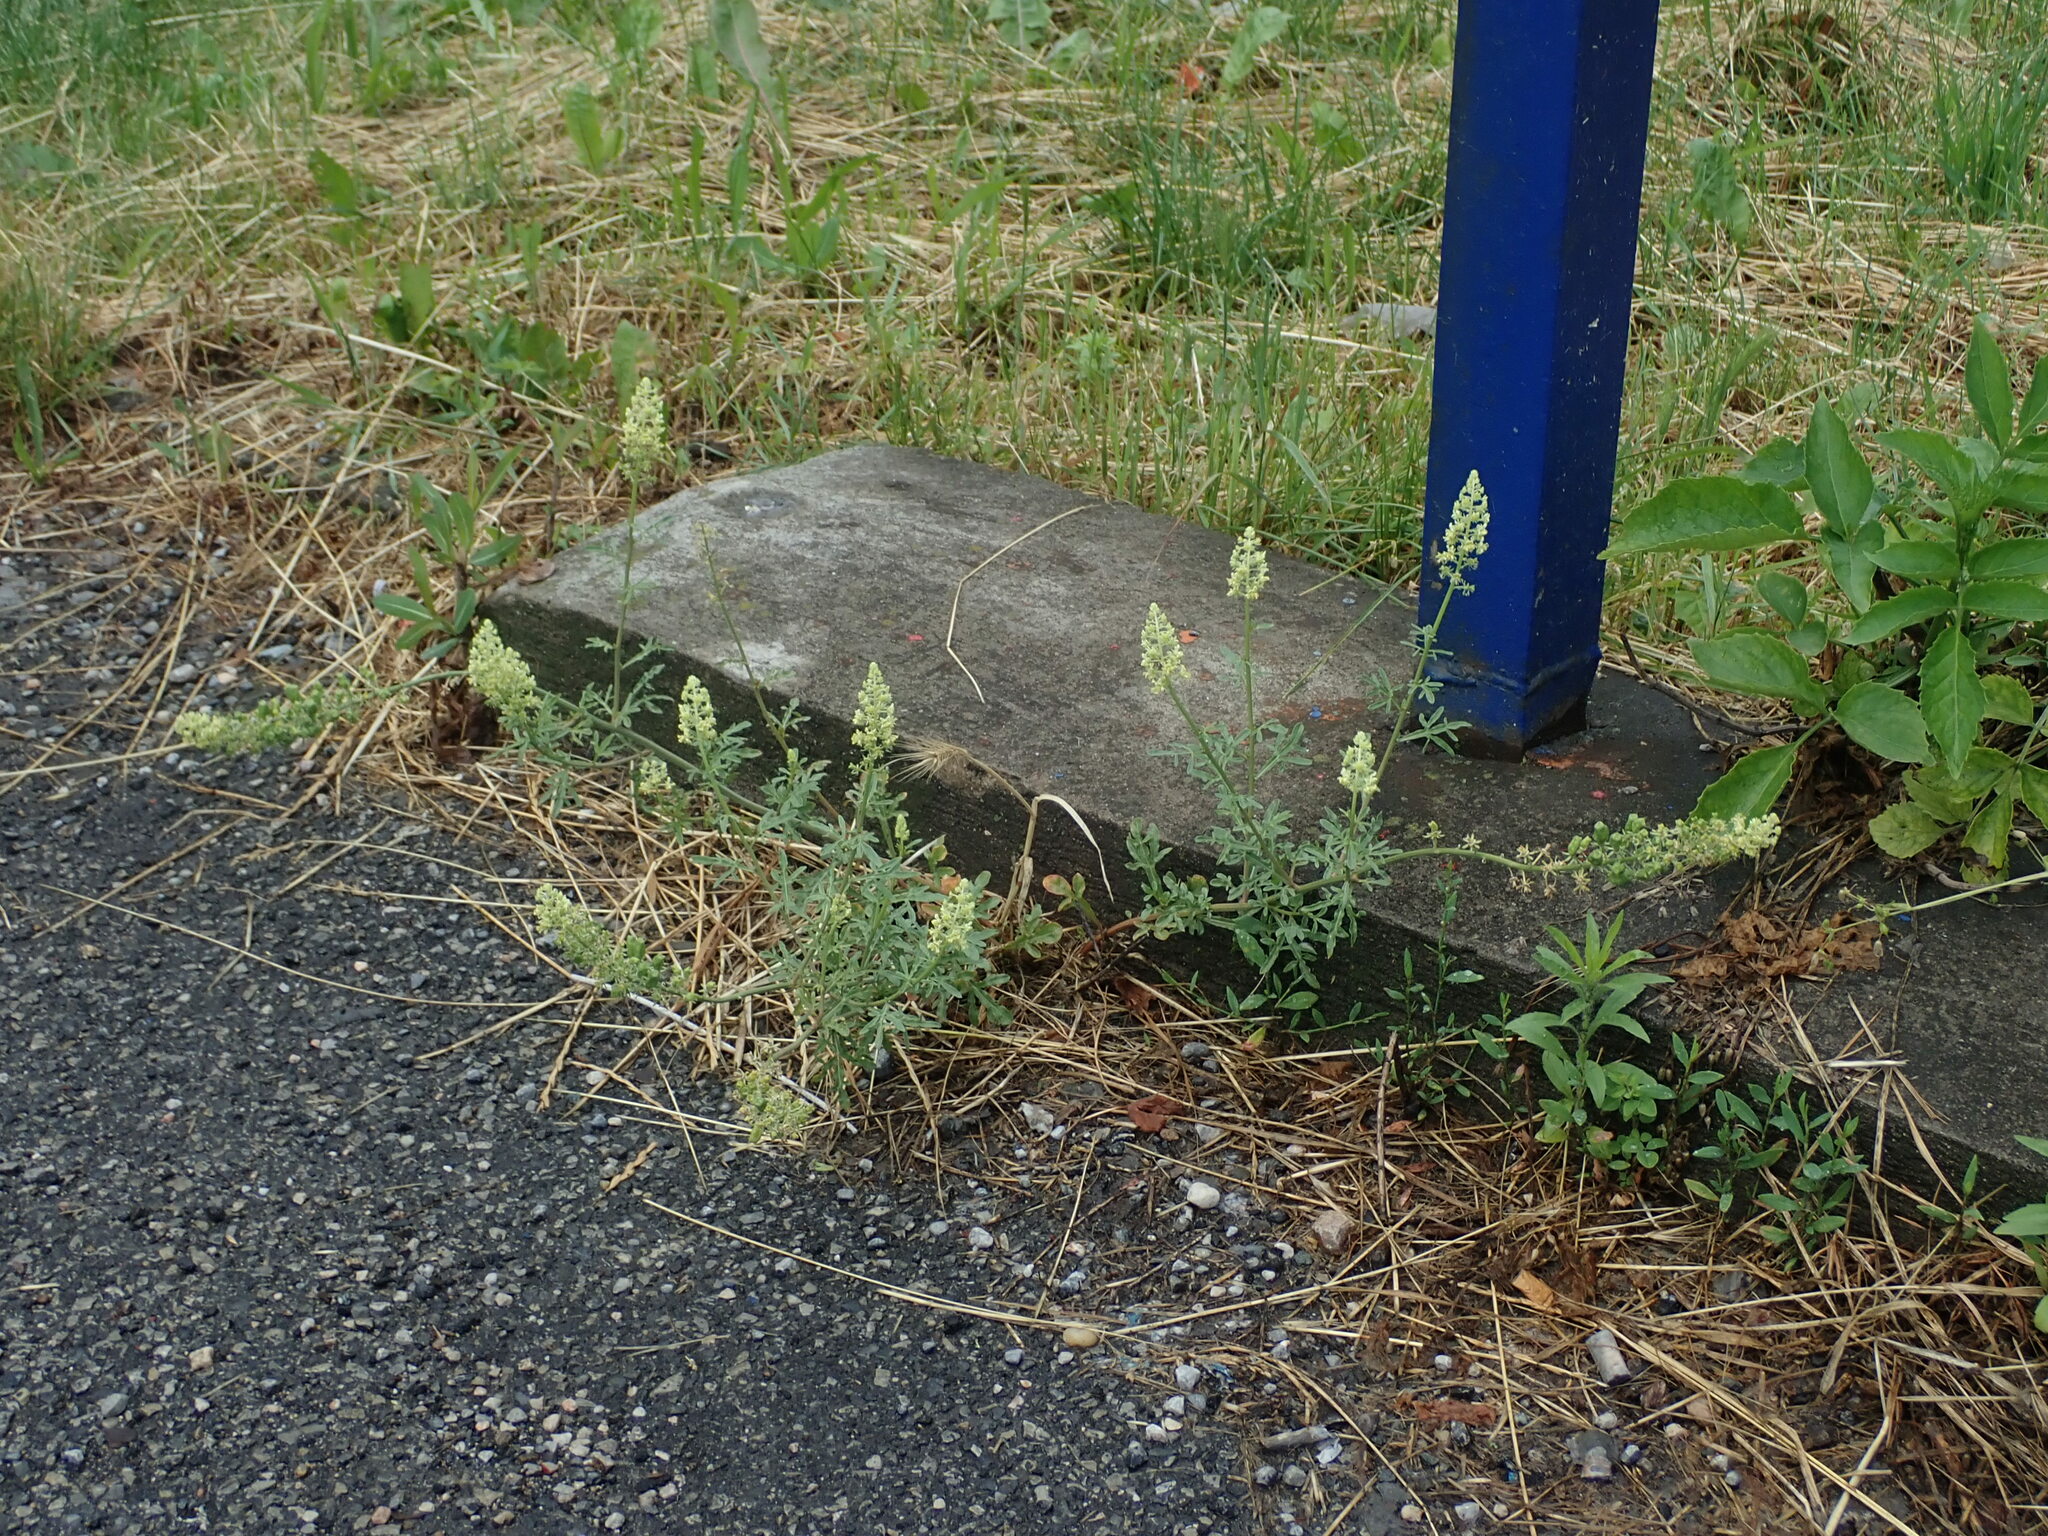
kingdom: Plantae
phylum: Tracheophyta
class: Magnoliopsida
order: Brassicales
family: Resedaceae
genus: Reseda
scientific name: Reseda lutea
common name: Wild mignonette
